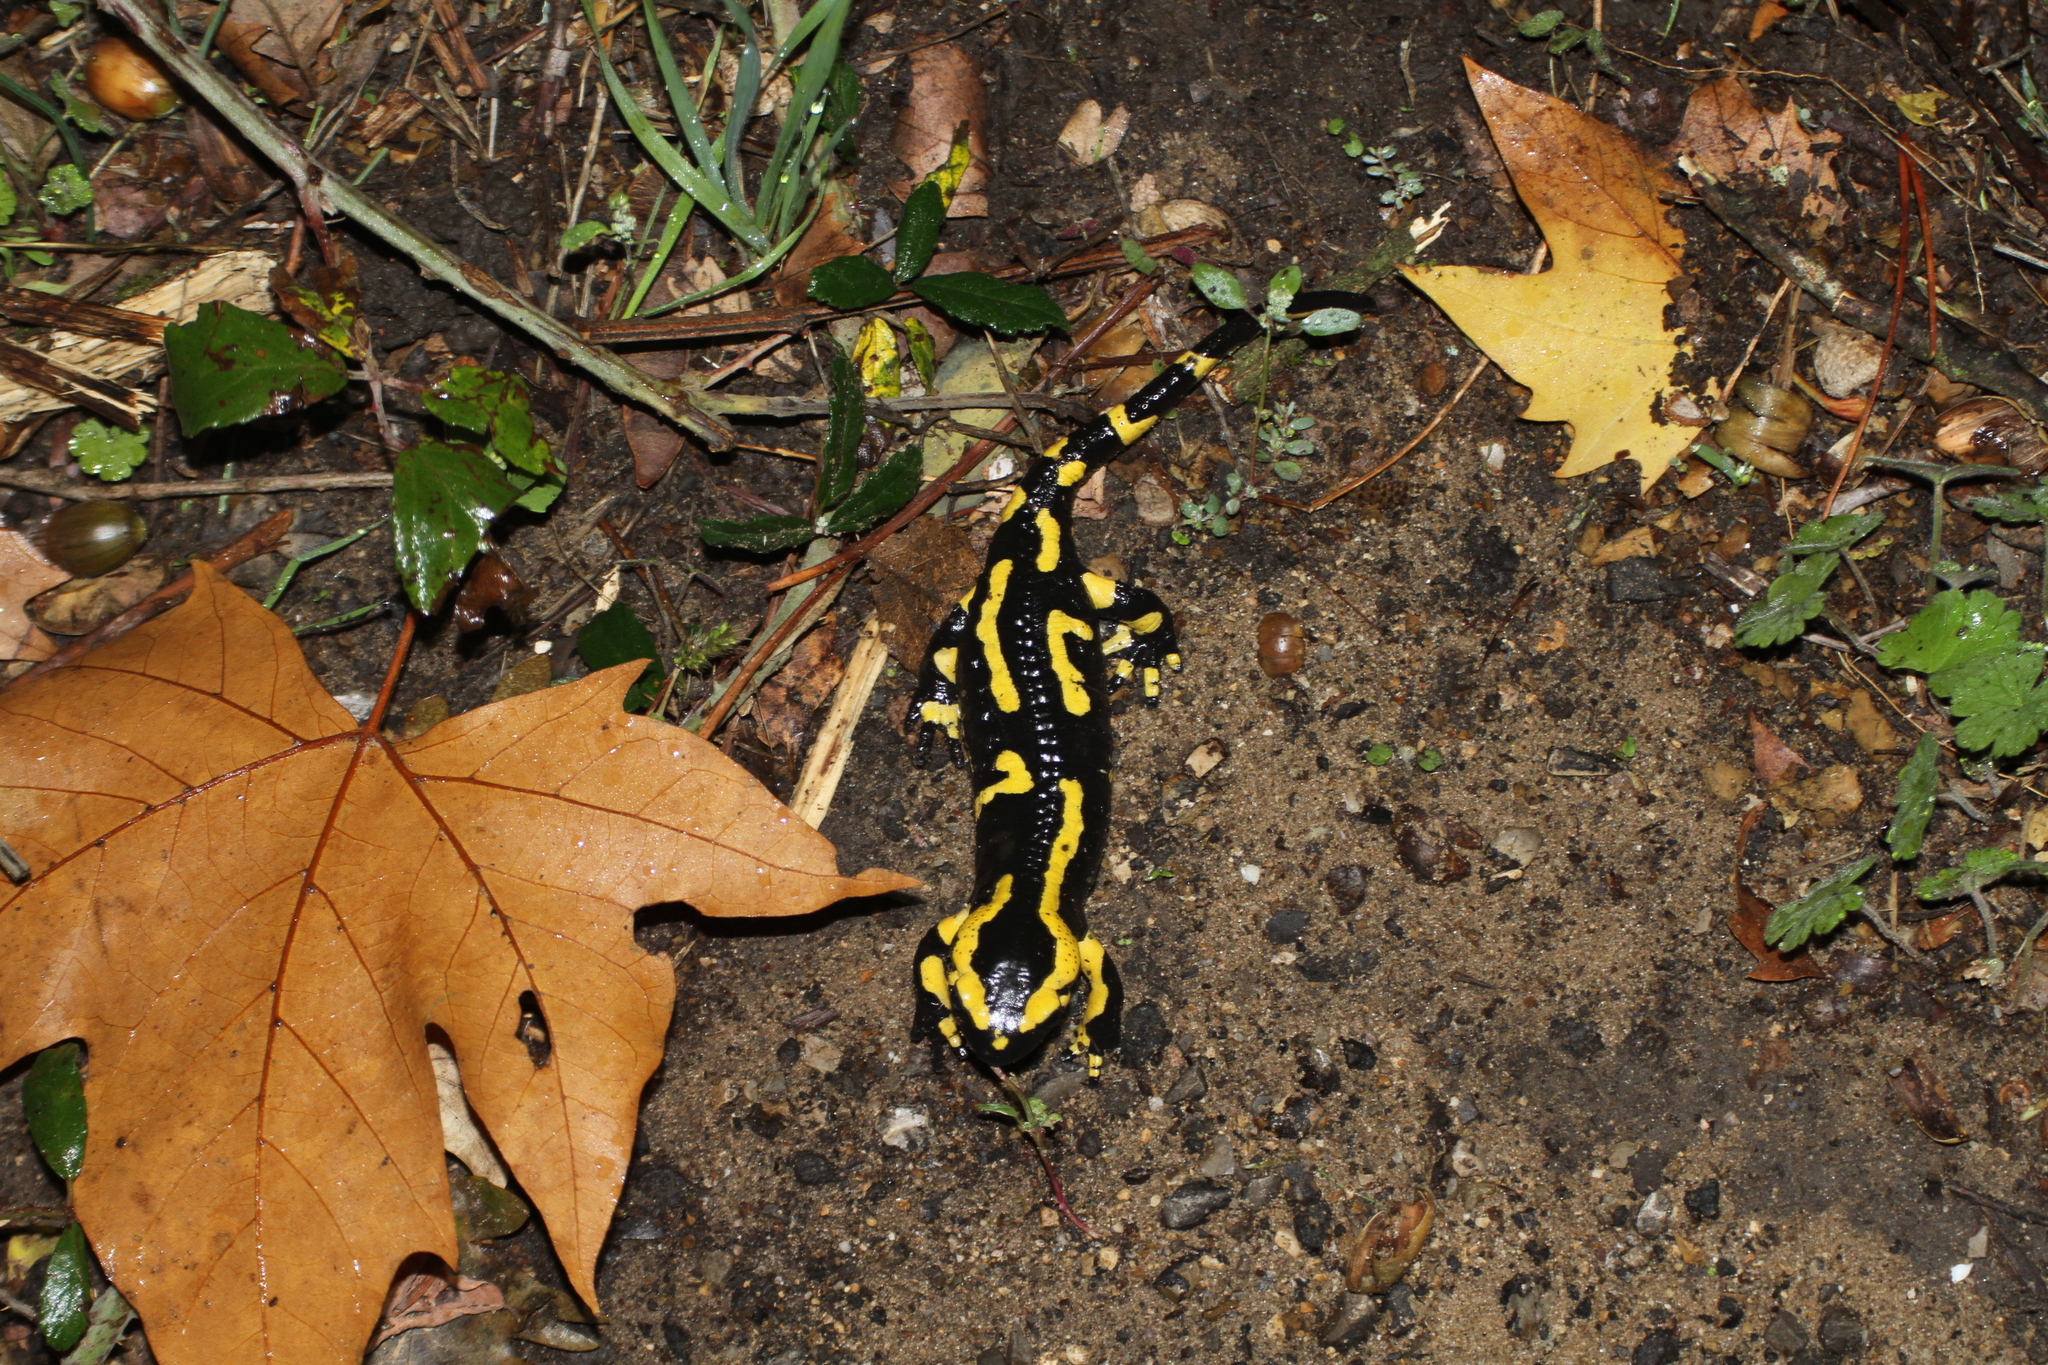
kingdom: Animalia
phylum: Chordata
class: Amphibia
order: Caudata
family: Salamandridae
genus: Salamandra
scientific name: Salamandra salamandra
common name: Fire salamander
